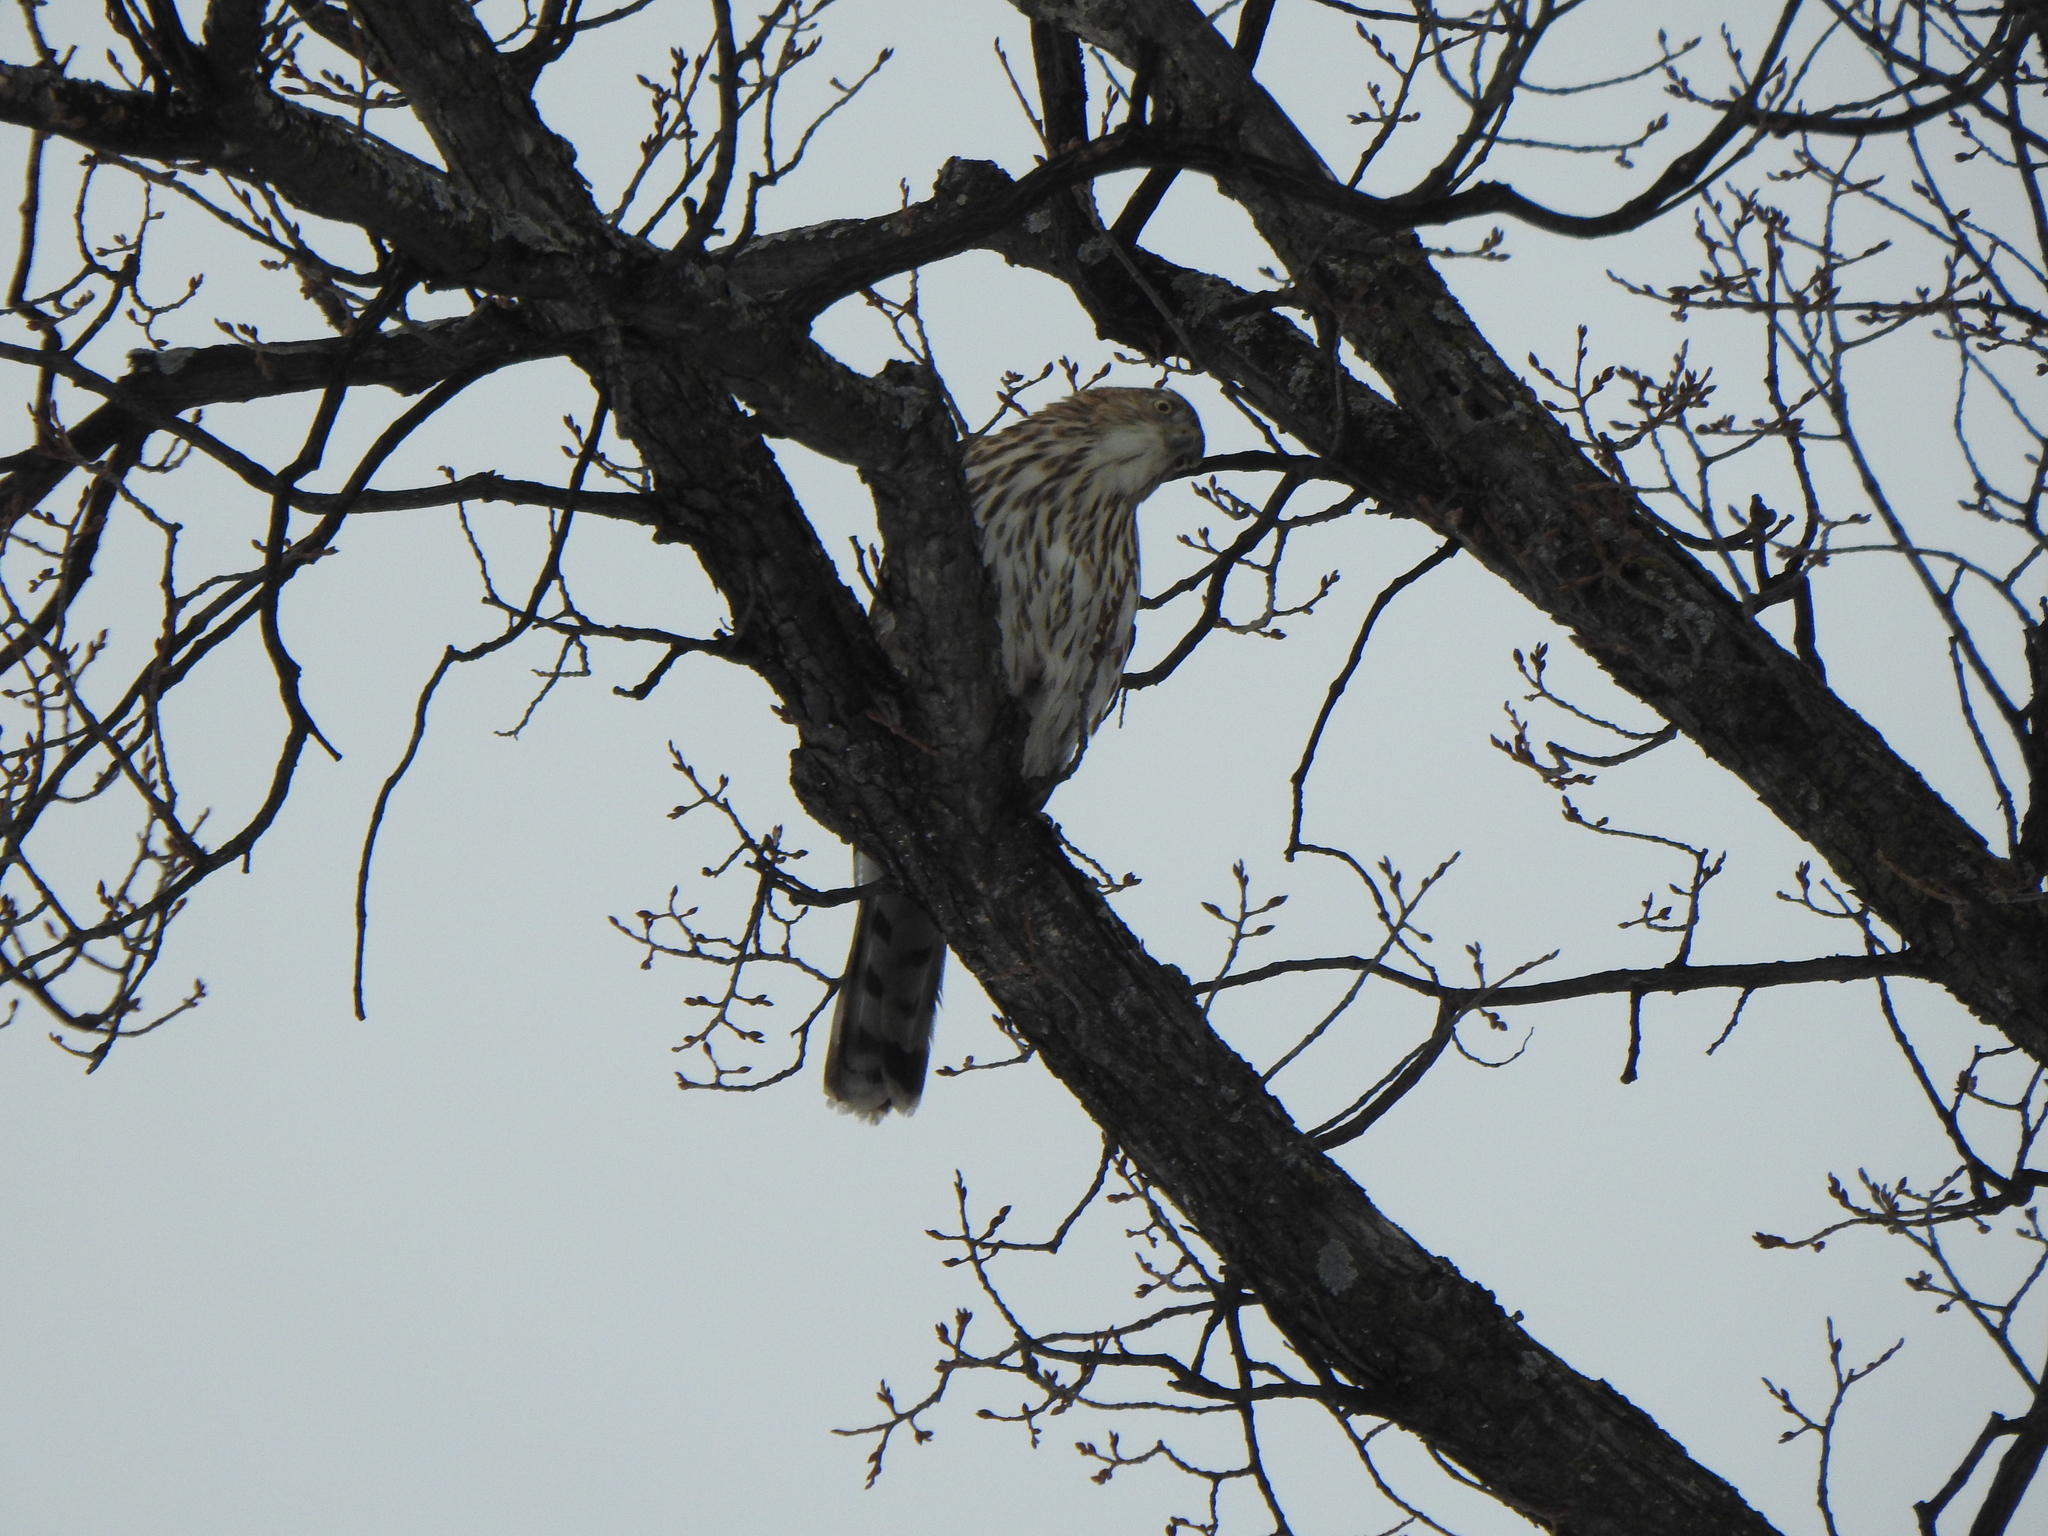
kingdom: Animalia
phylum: Chordata
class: Aves
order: Accipitriformes
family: Accipitridae
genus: Accipiter
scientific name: Accipiter cooperii
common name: Cooper's hawk
